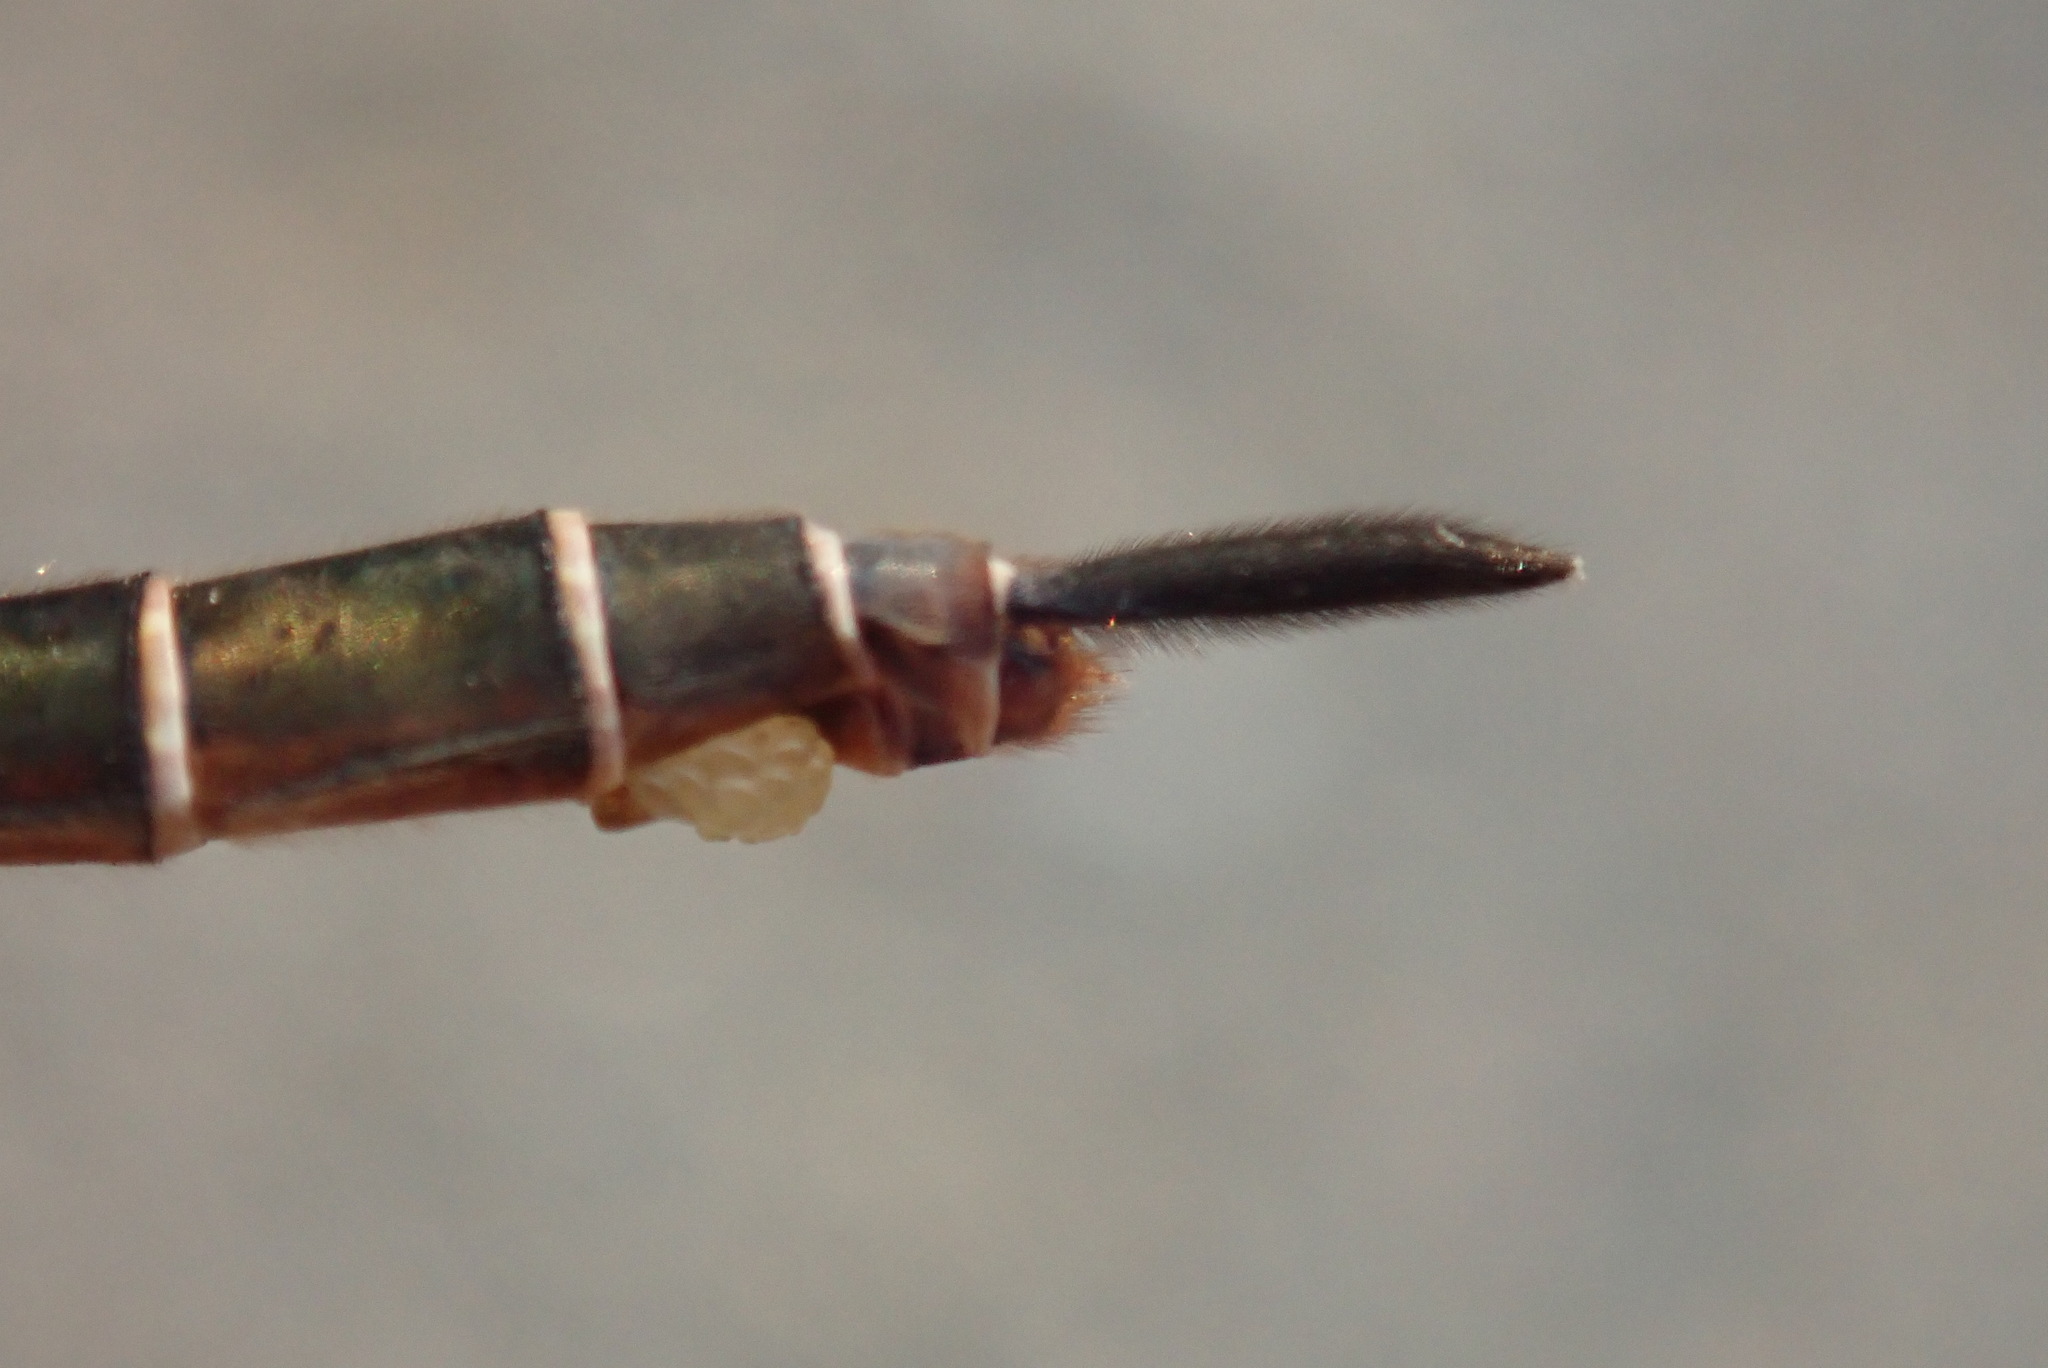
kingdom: Animalia
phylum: Arthropoda
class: Insecta
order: Odonata
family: Corduliidae
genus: Somatochlora
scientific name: Somatochlora cingulata
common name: Lake emerald
